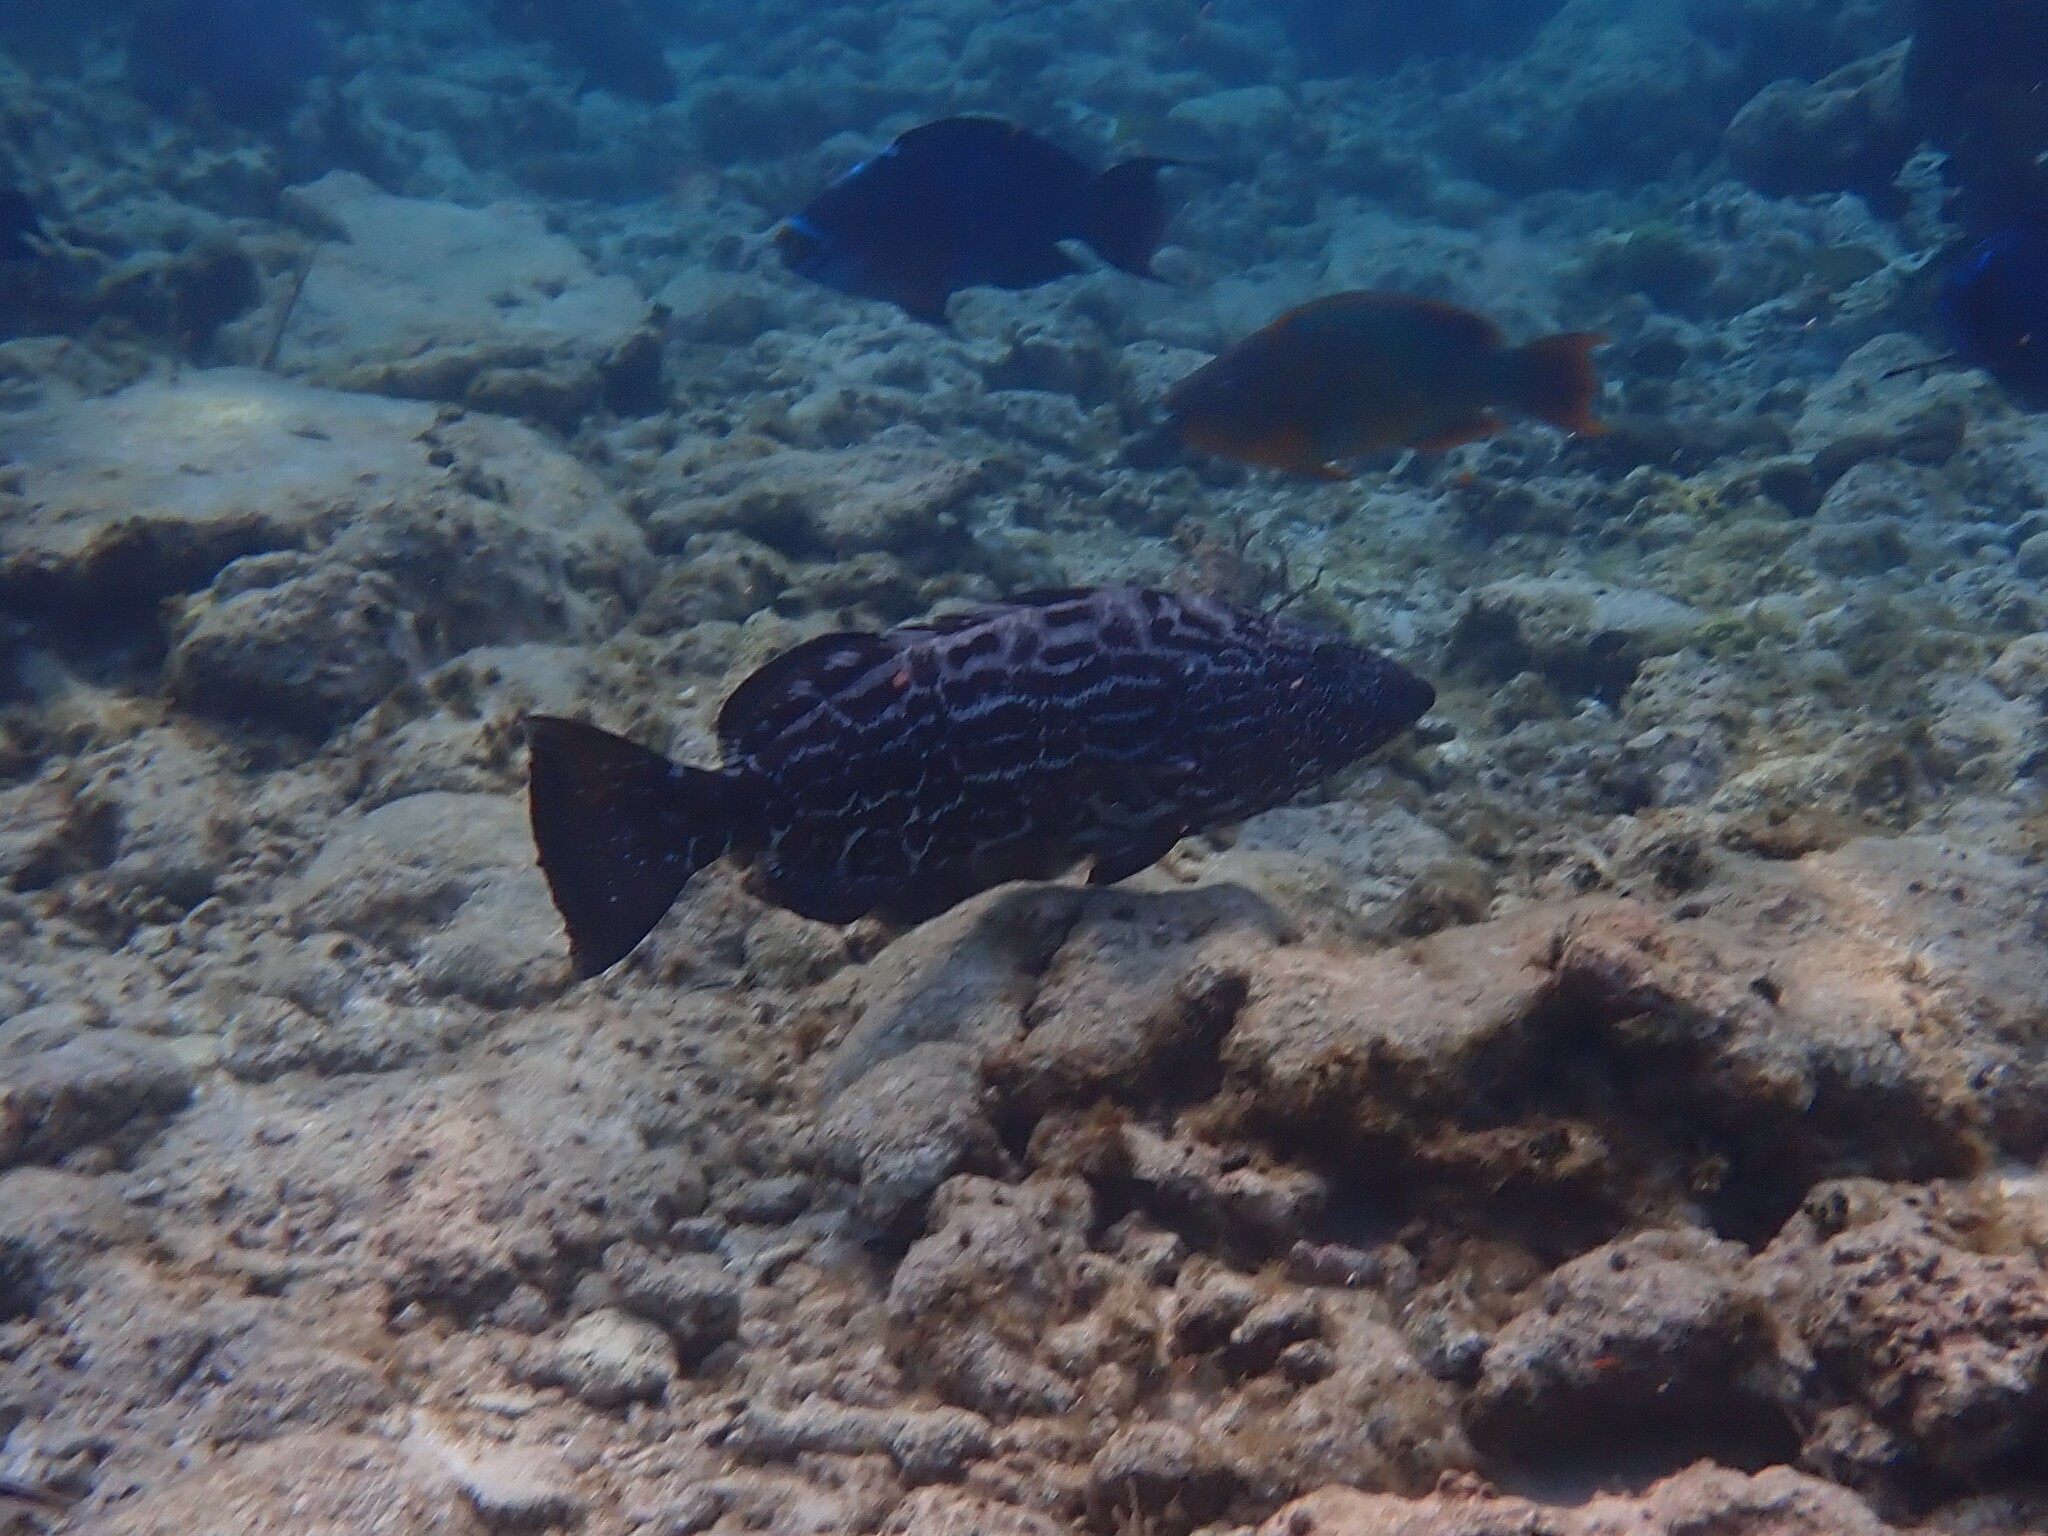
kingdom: Animalia
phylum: Chordata
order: Perciformes
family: Serranidae
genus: Mycteroperca
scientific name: Mycteroperca bonaci
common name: Black grouper
